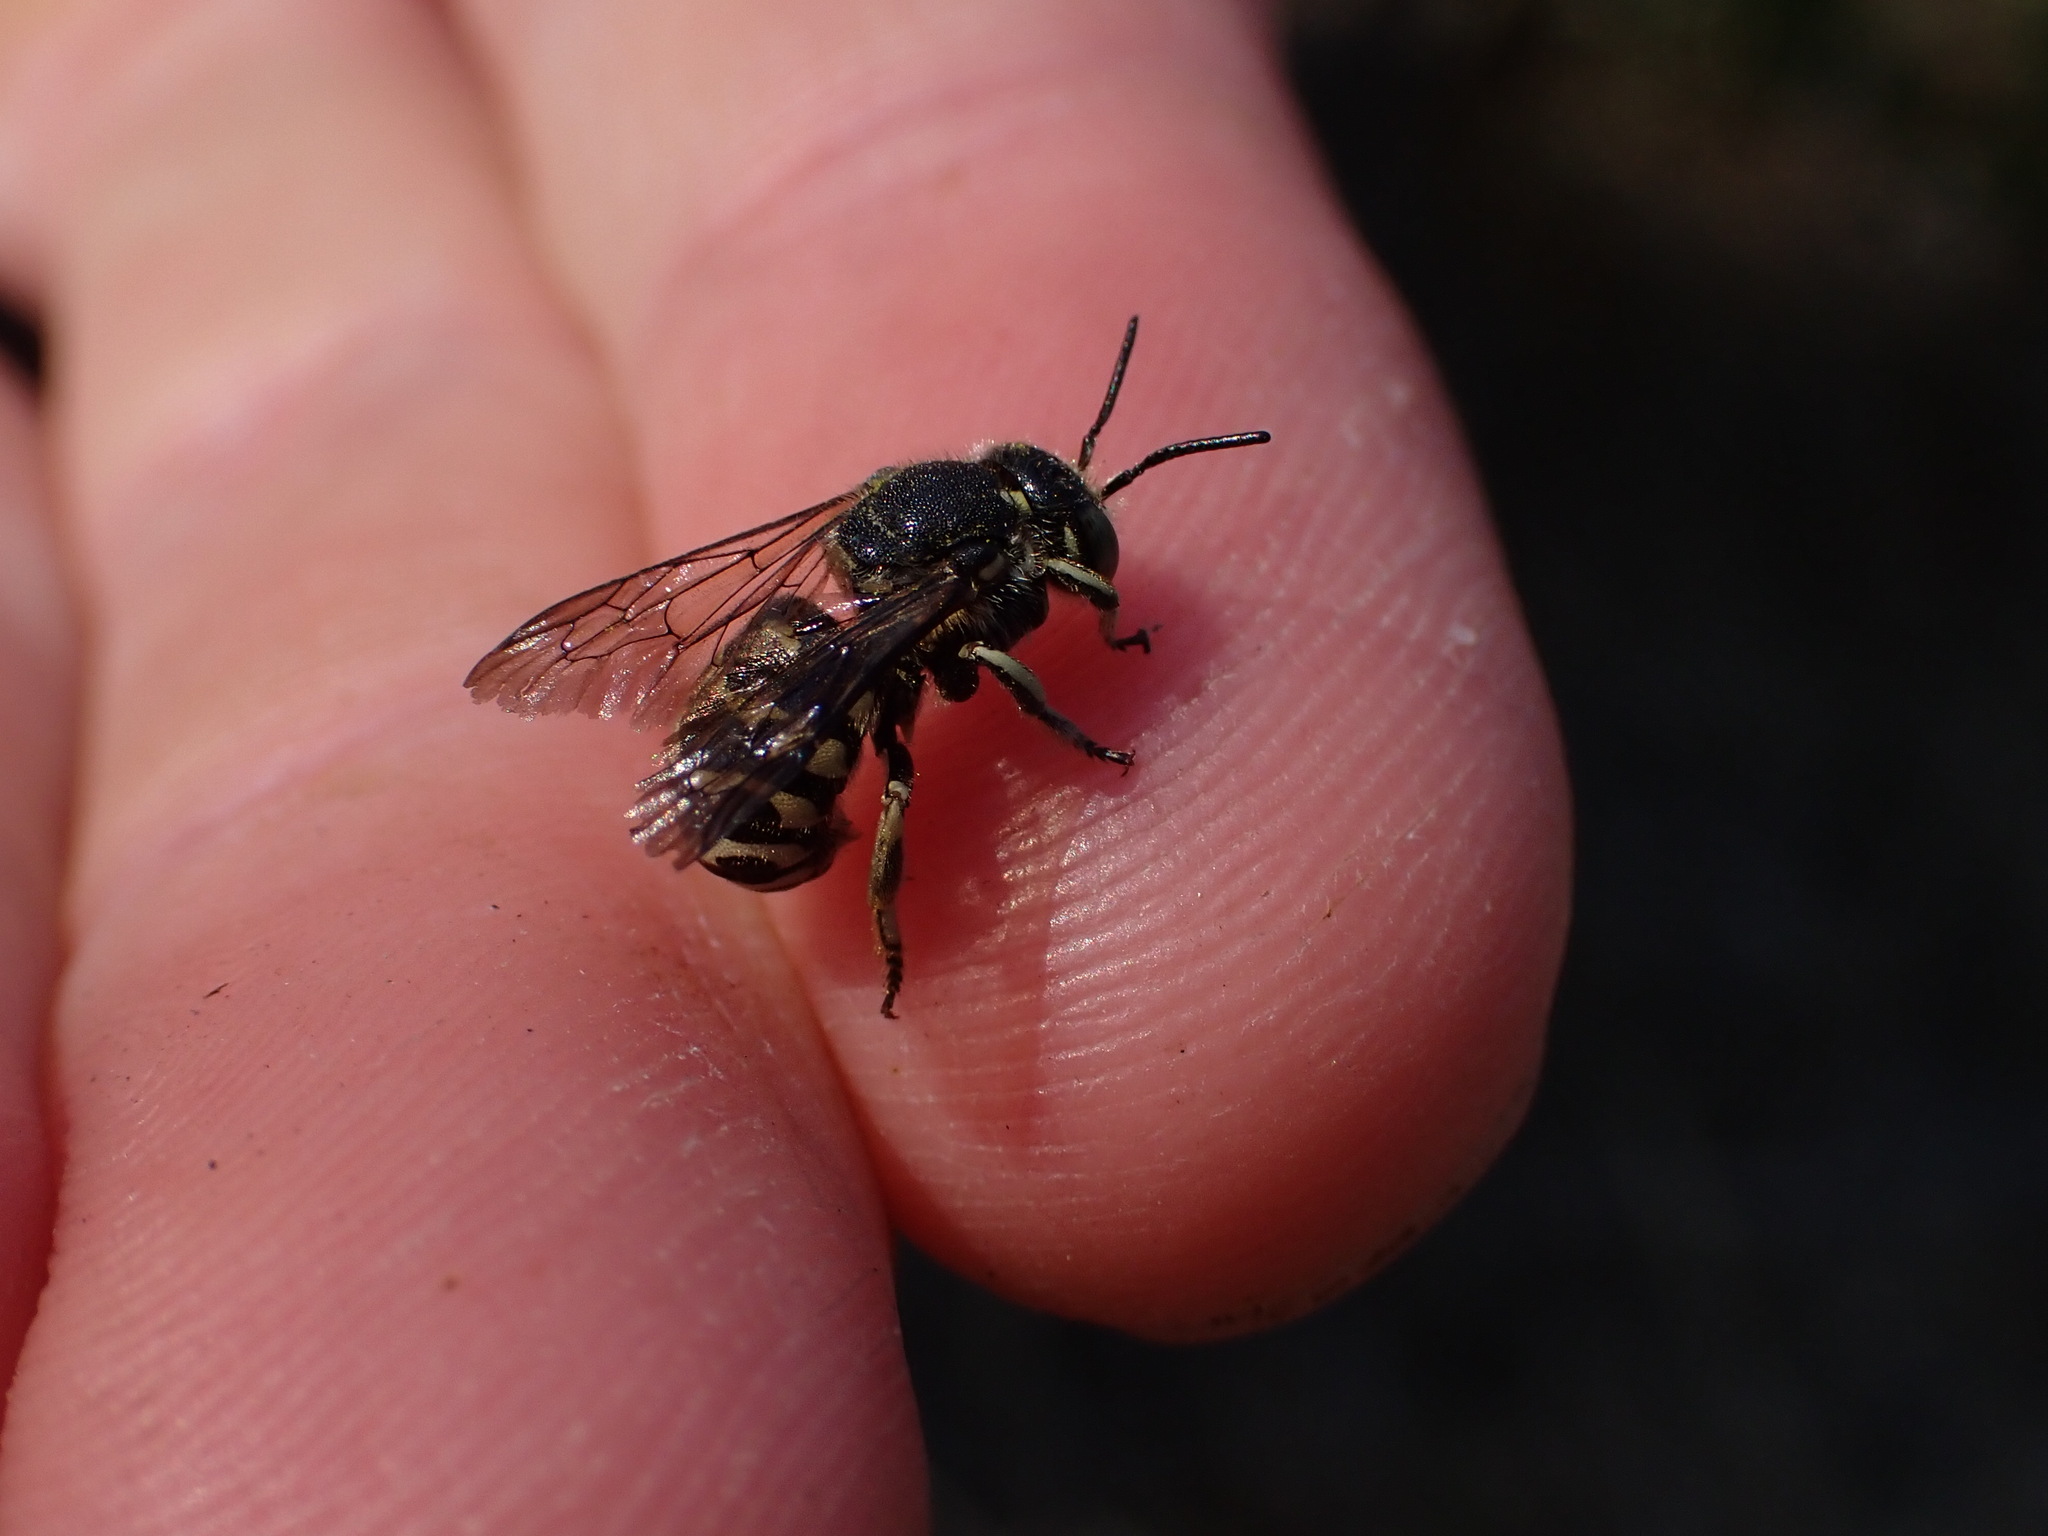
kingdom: Animalia
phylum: Arthropoda
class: Insecta
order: Hymenoptera
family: Megachilidae
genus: Dianthidium
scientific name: Dianthidium subparvum
